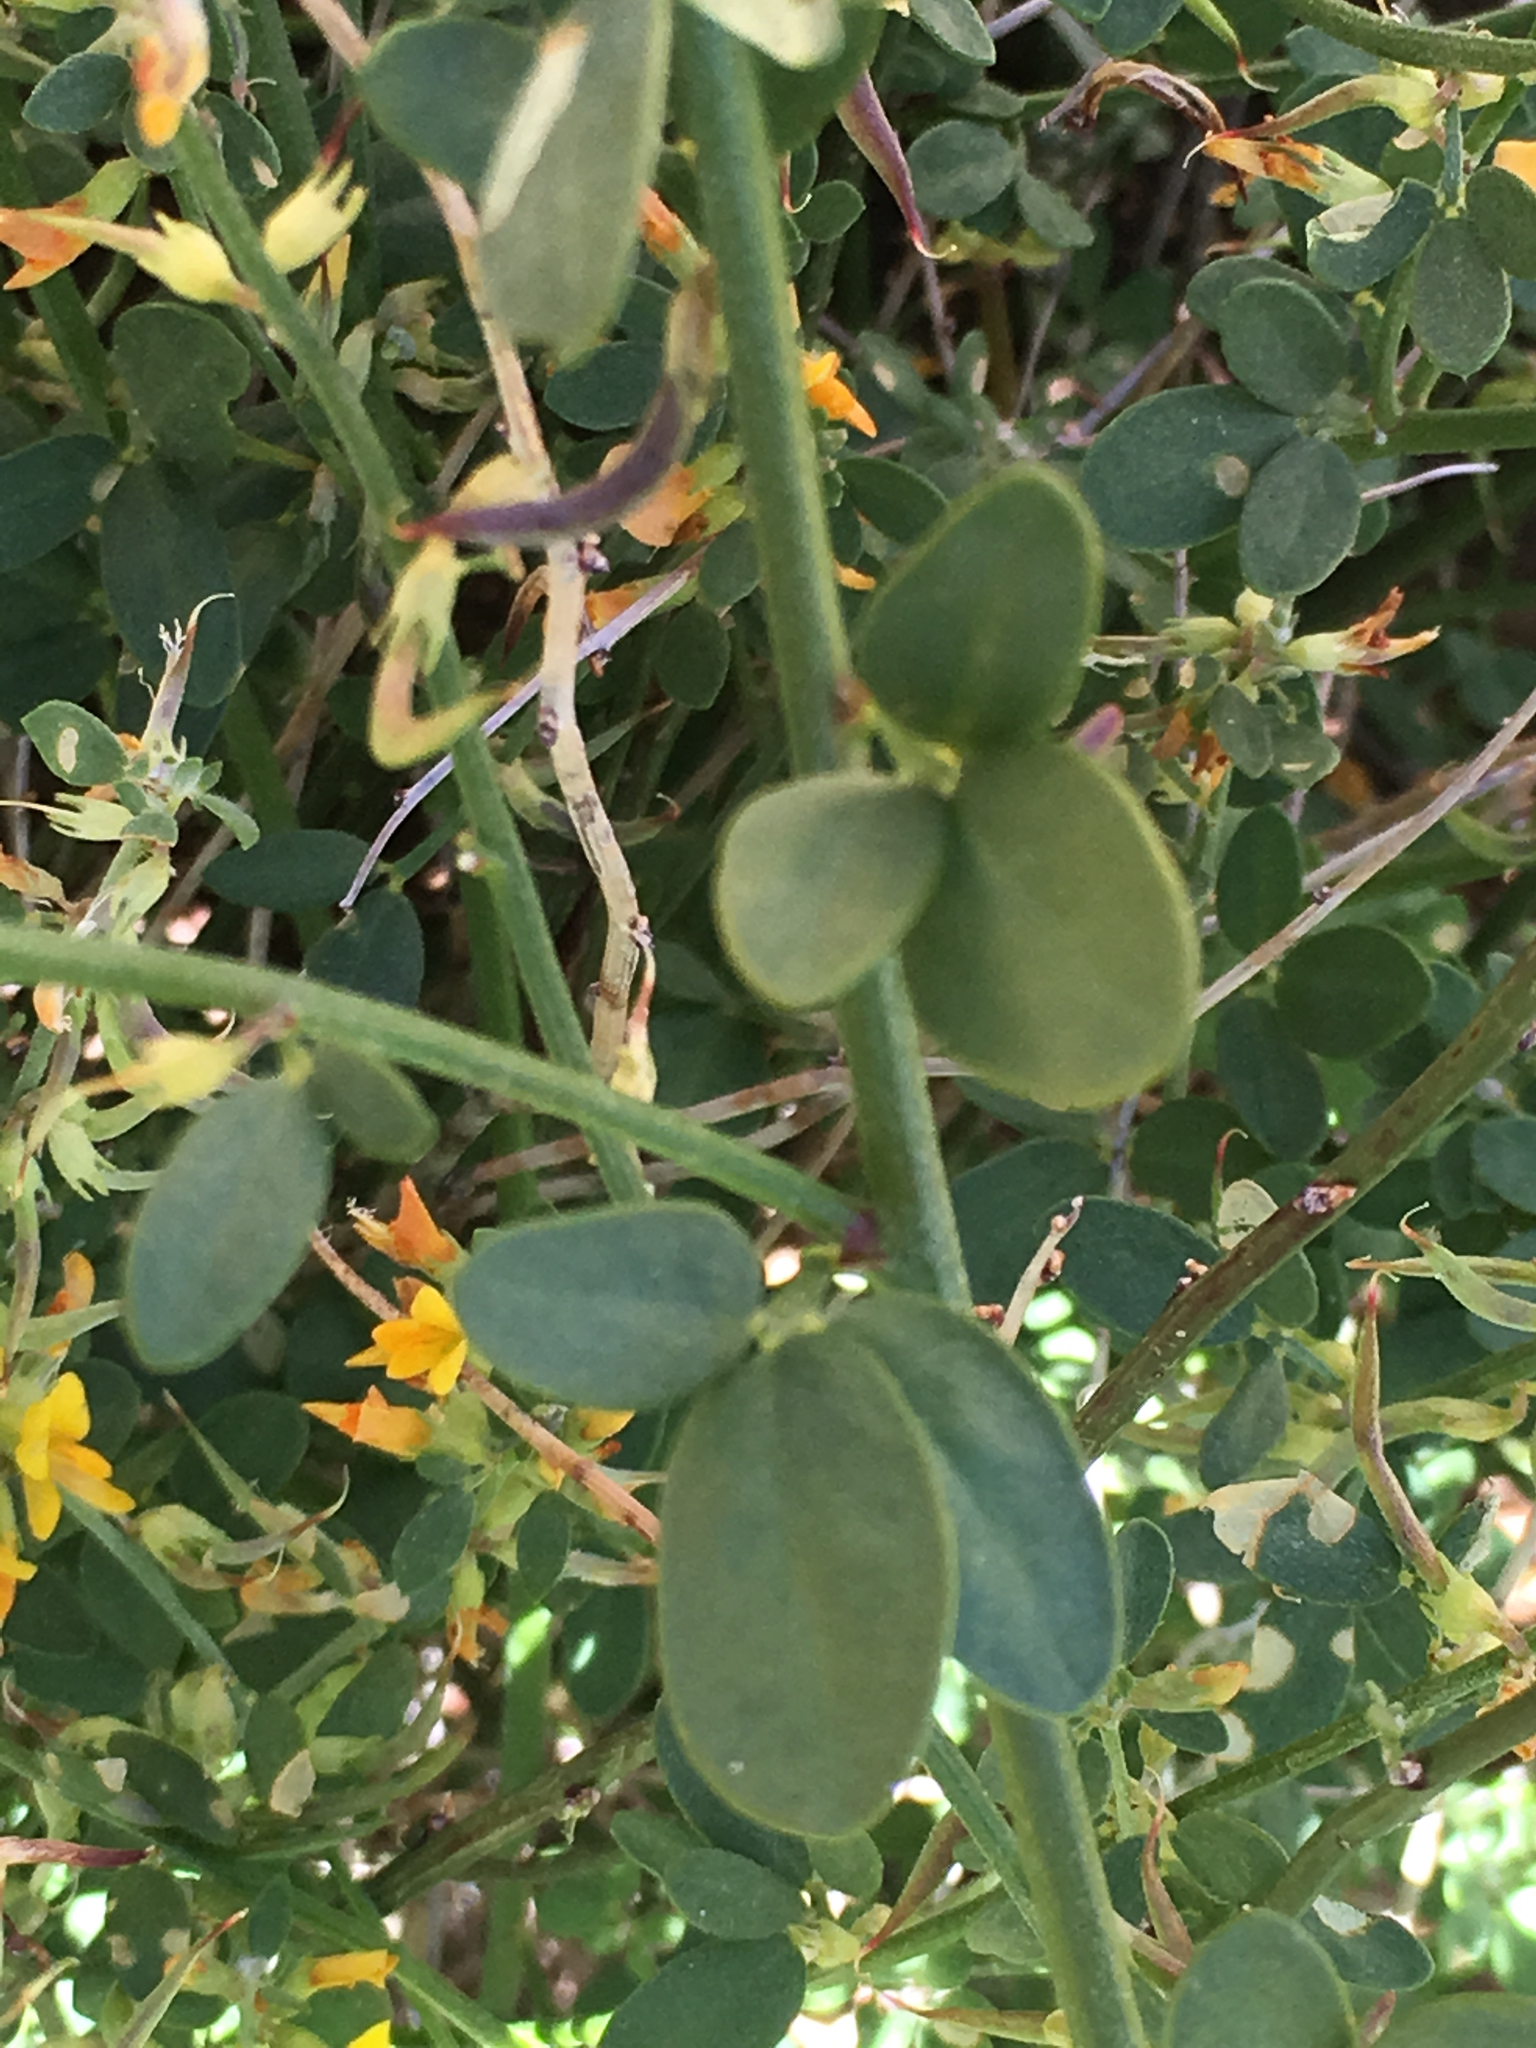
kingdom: Plantae
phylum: Tracheophyta
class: Magnoliopsida
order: Fabales
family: Fabaceae
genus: Acmispon
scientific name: Acmispon glaber
